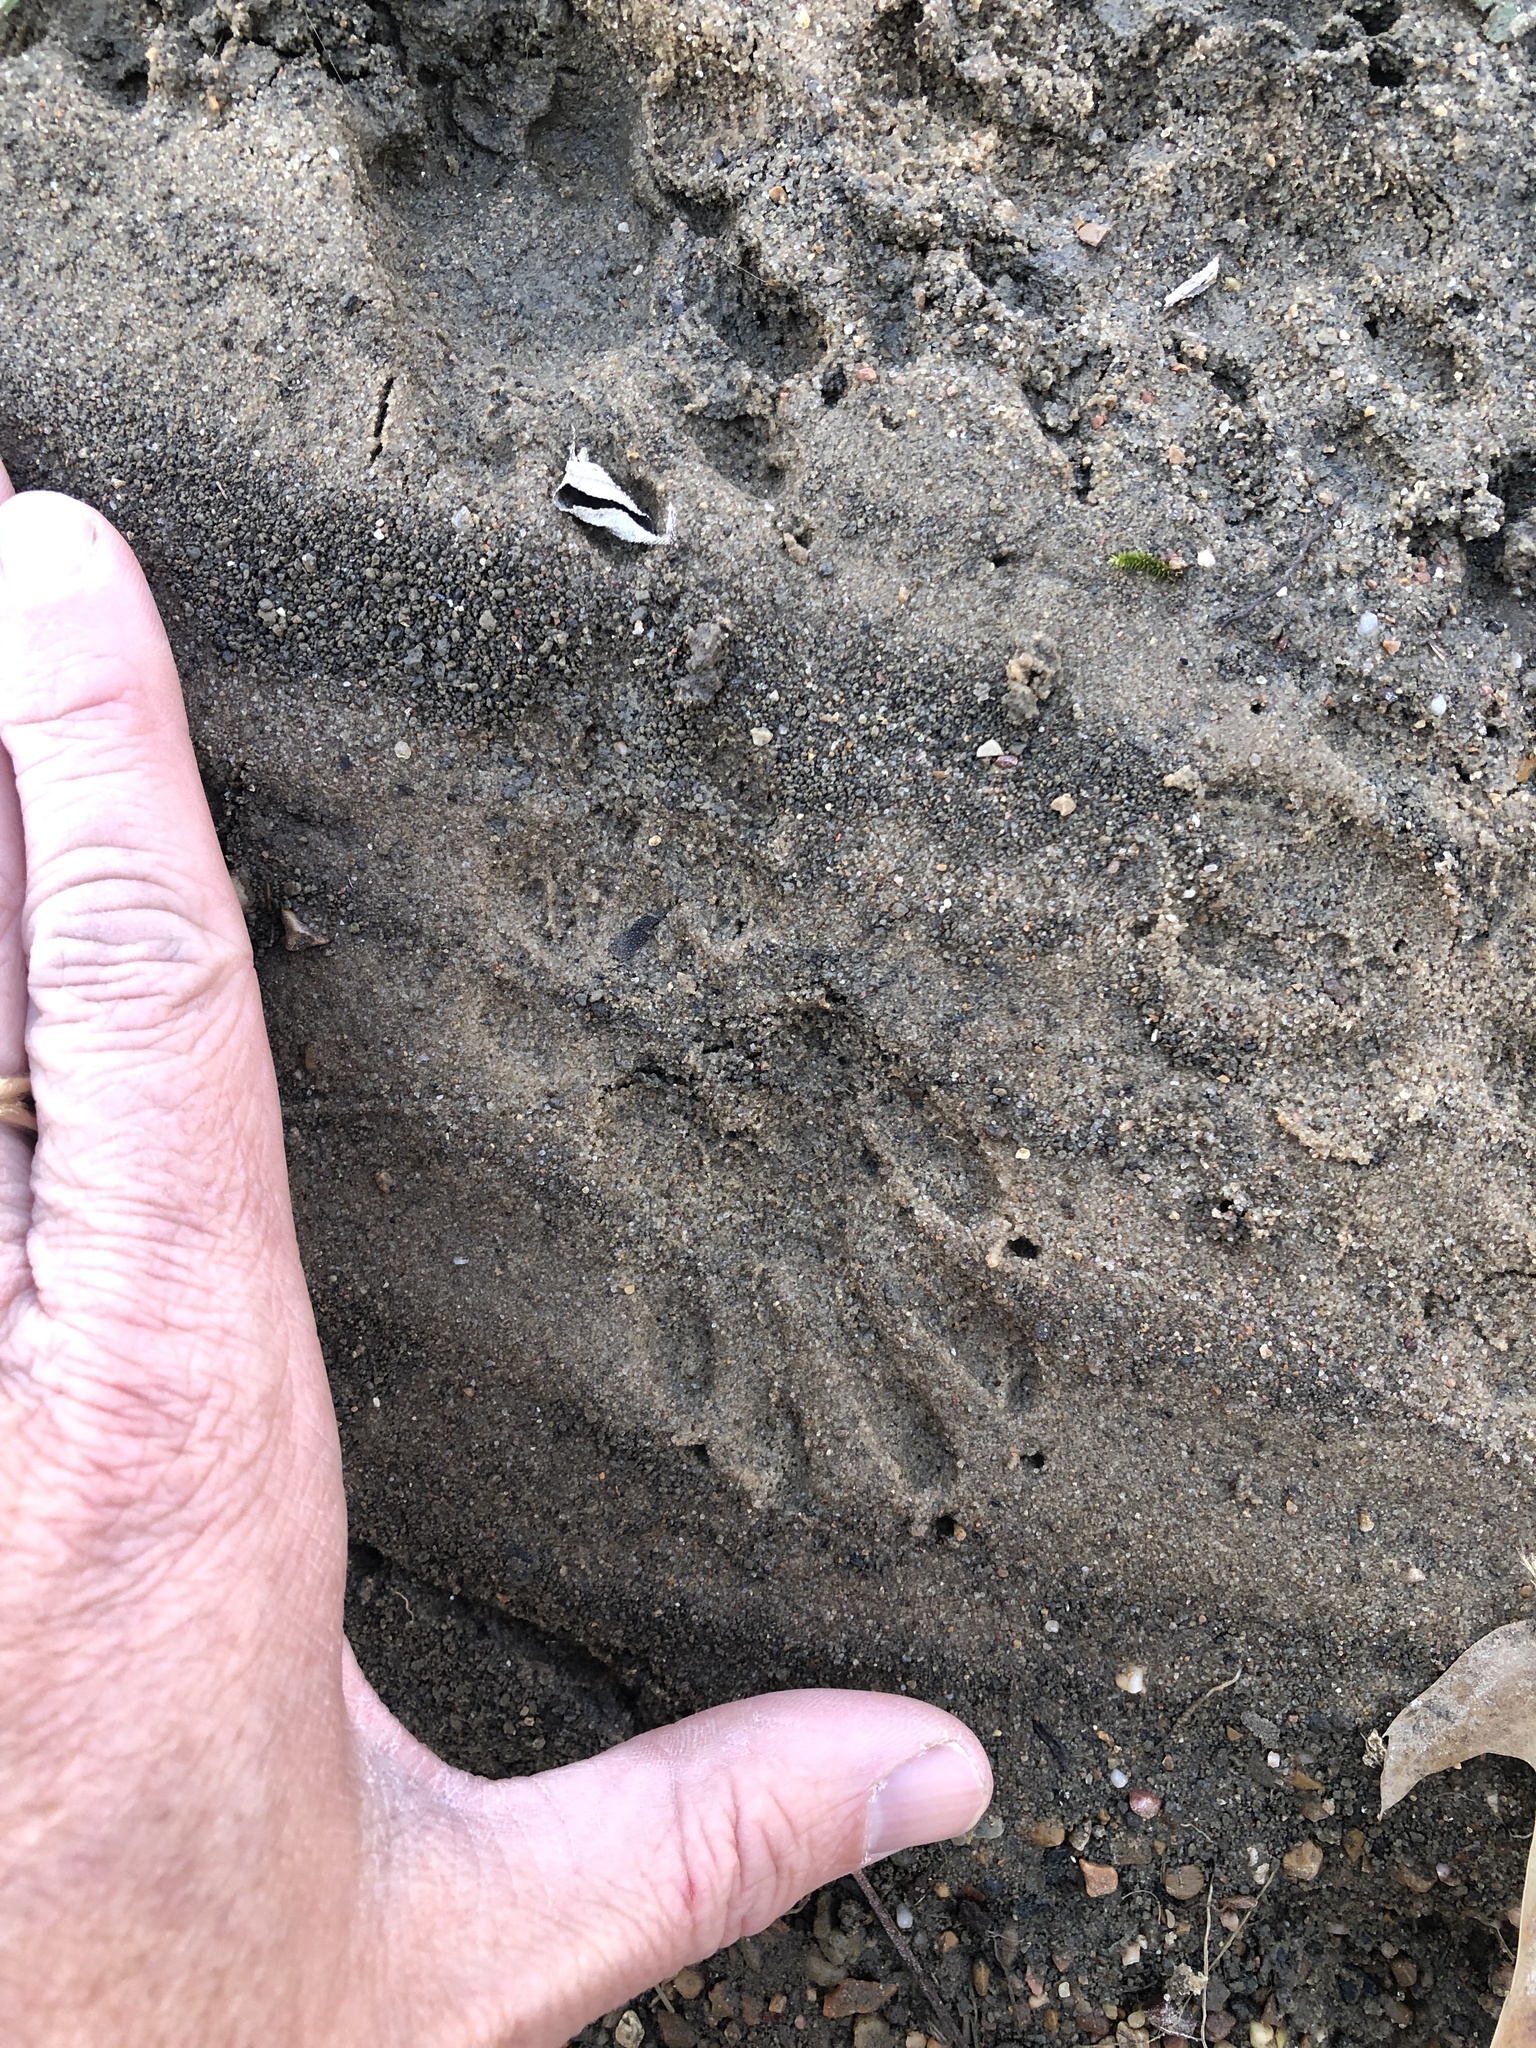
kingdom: Animalia
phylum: Chordata
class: Mammalia
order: Carnivora
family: Procyonidae
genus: Procyon
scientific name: Procyon lotor
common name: Raccoon
